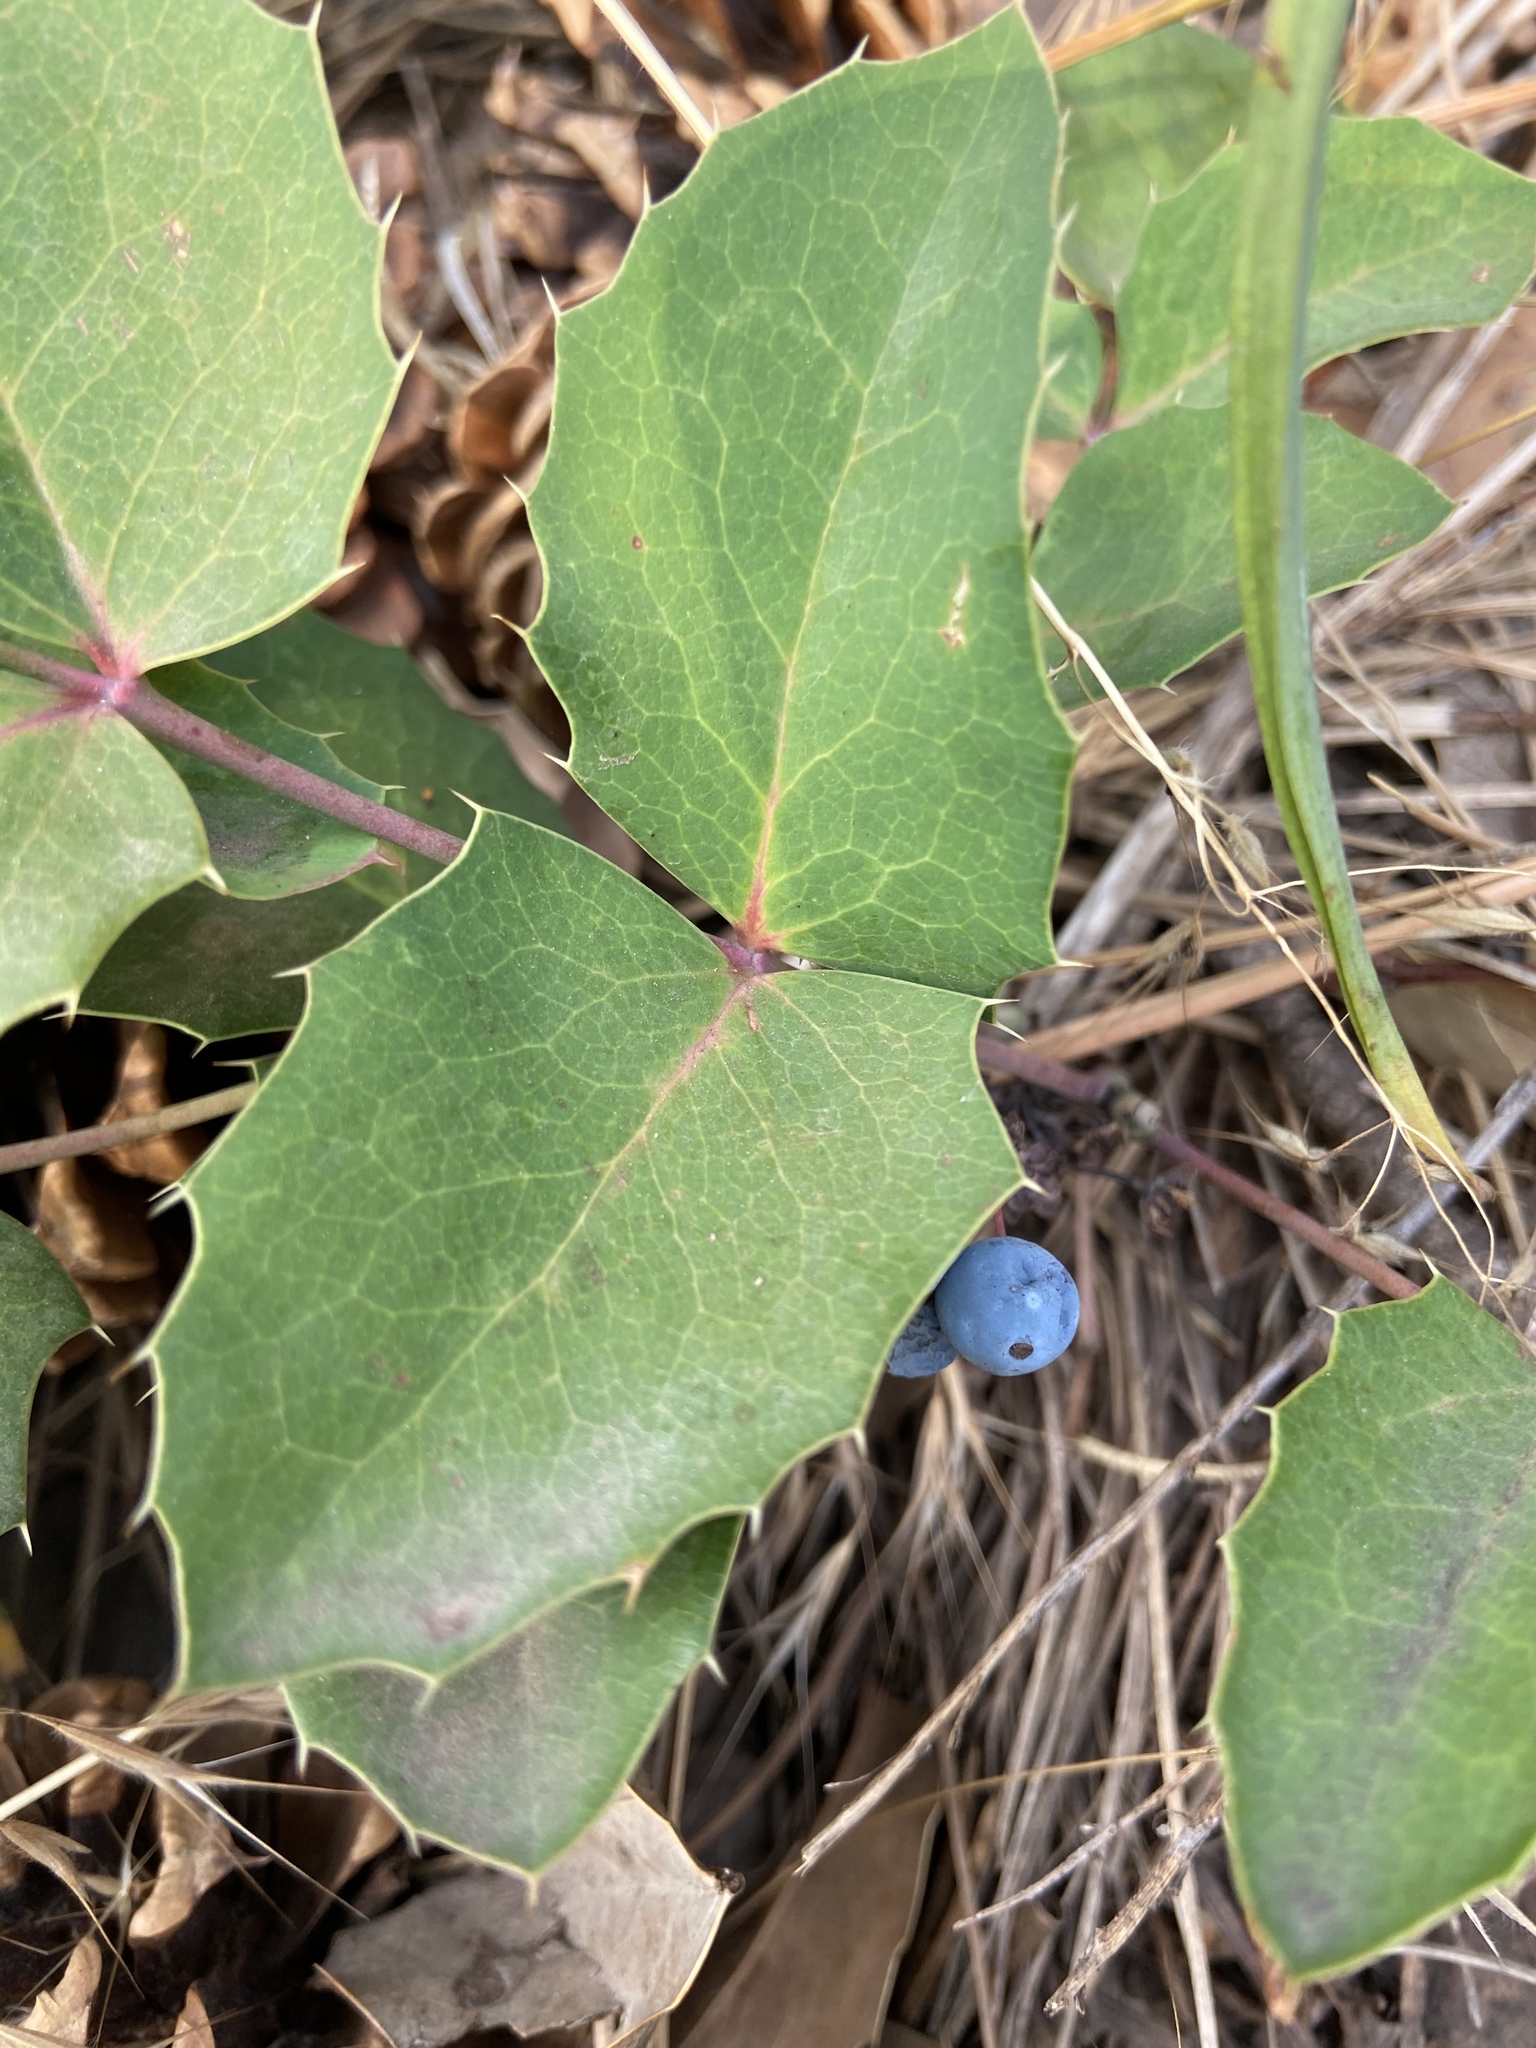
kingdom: Plantae
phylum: Tracheophyta
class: Magnoliopsida
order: Ranunculales
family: Berberidaceae
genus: Mahonia
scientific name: Mahonia repens
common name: Creeping oregon-grape
